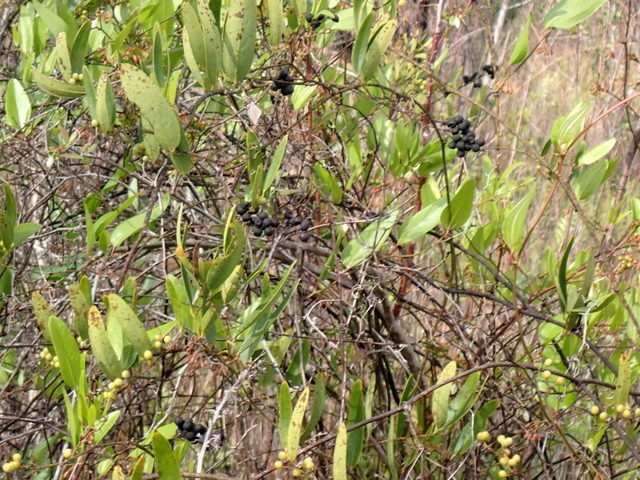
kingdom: Plantae
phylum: Tracheophyta
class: Liliopsida
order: Liliales
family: Smilacaceae
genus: Smilax
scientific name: Smilax laurifolia
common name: Bamboovine
